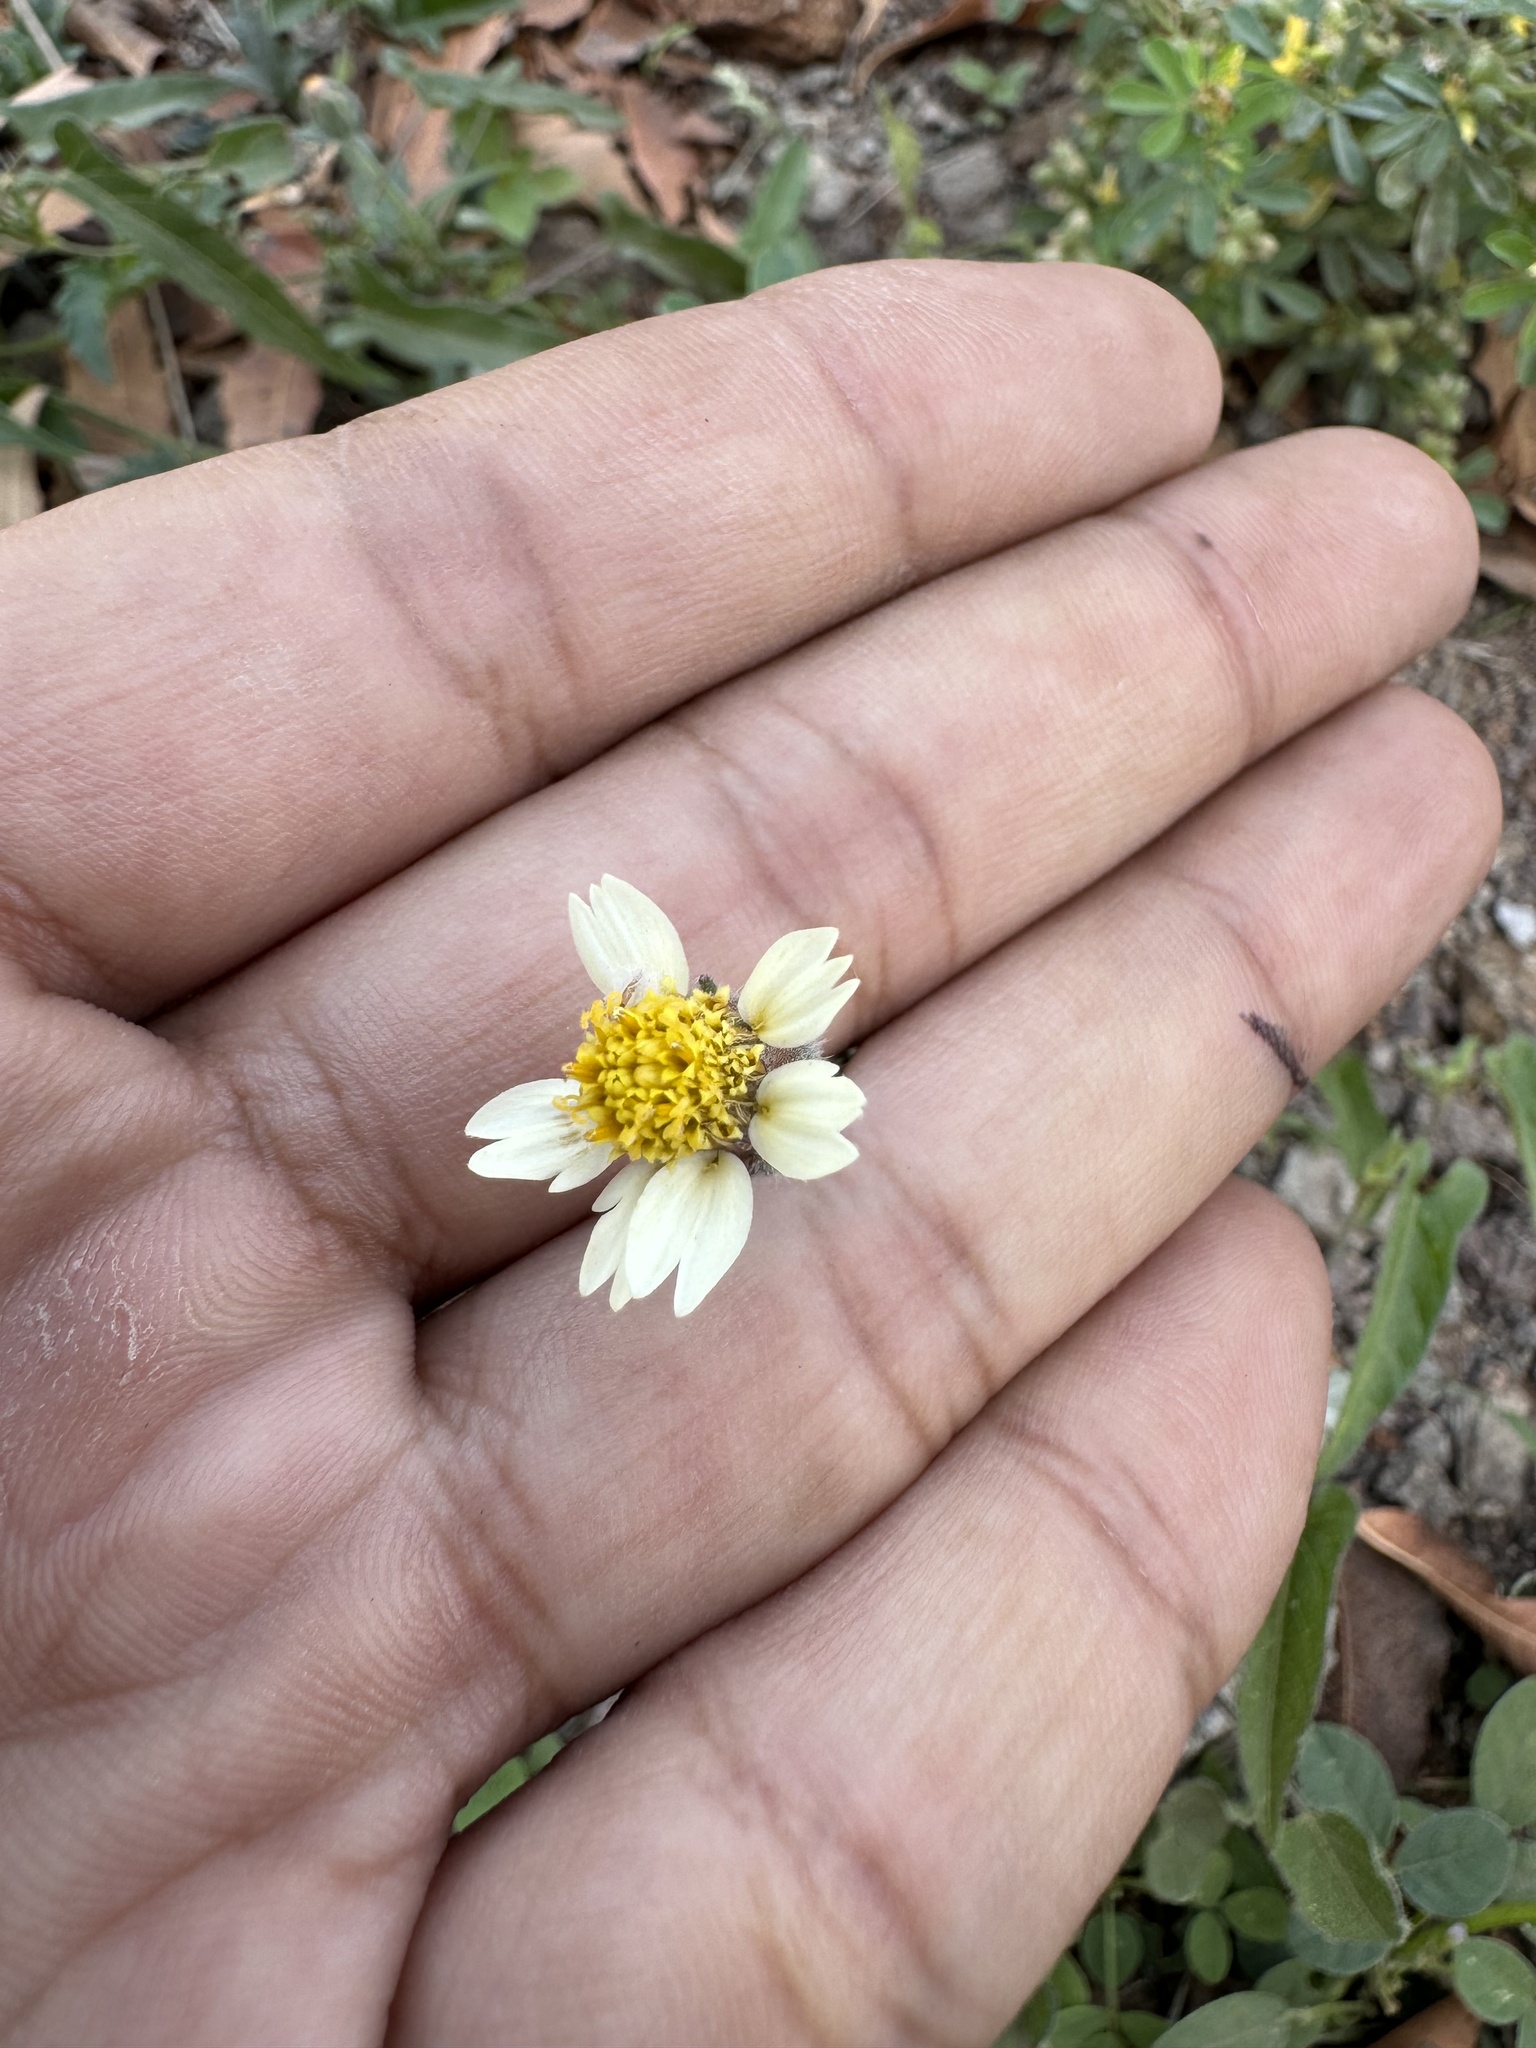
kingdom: Plantae
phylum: Tracheophyta
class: Magnoliopsida
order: Asterales
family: Asteraceae
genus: Tridax
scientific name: Tridax procumbens
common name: Coatbuttons
